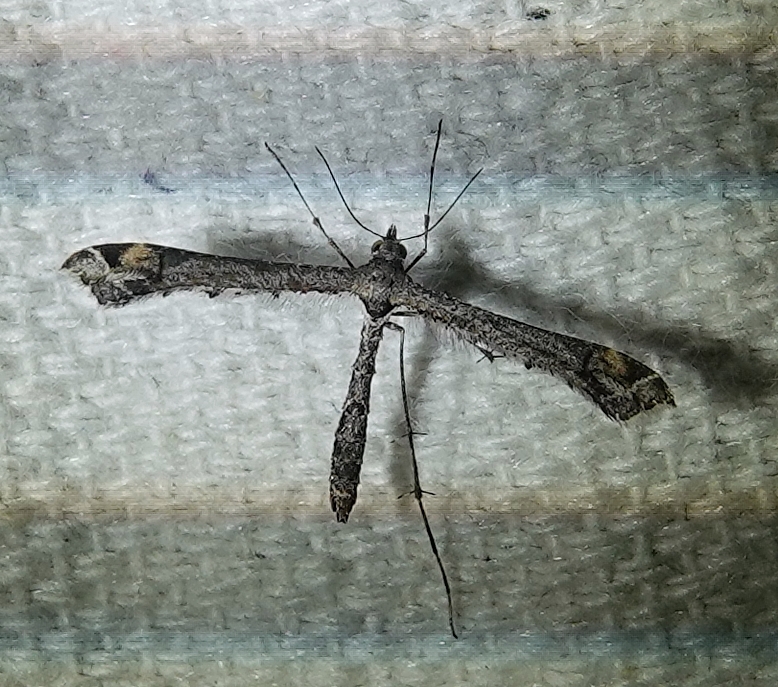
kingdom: Animalia
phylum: Arthropoda
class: Insecta
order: Lepidoptera
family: Pterophoridae
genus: Anstenoptilia
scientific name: Anstenoptilia marmarodactyla
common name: Moth
